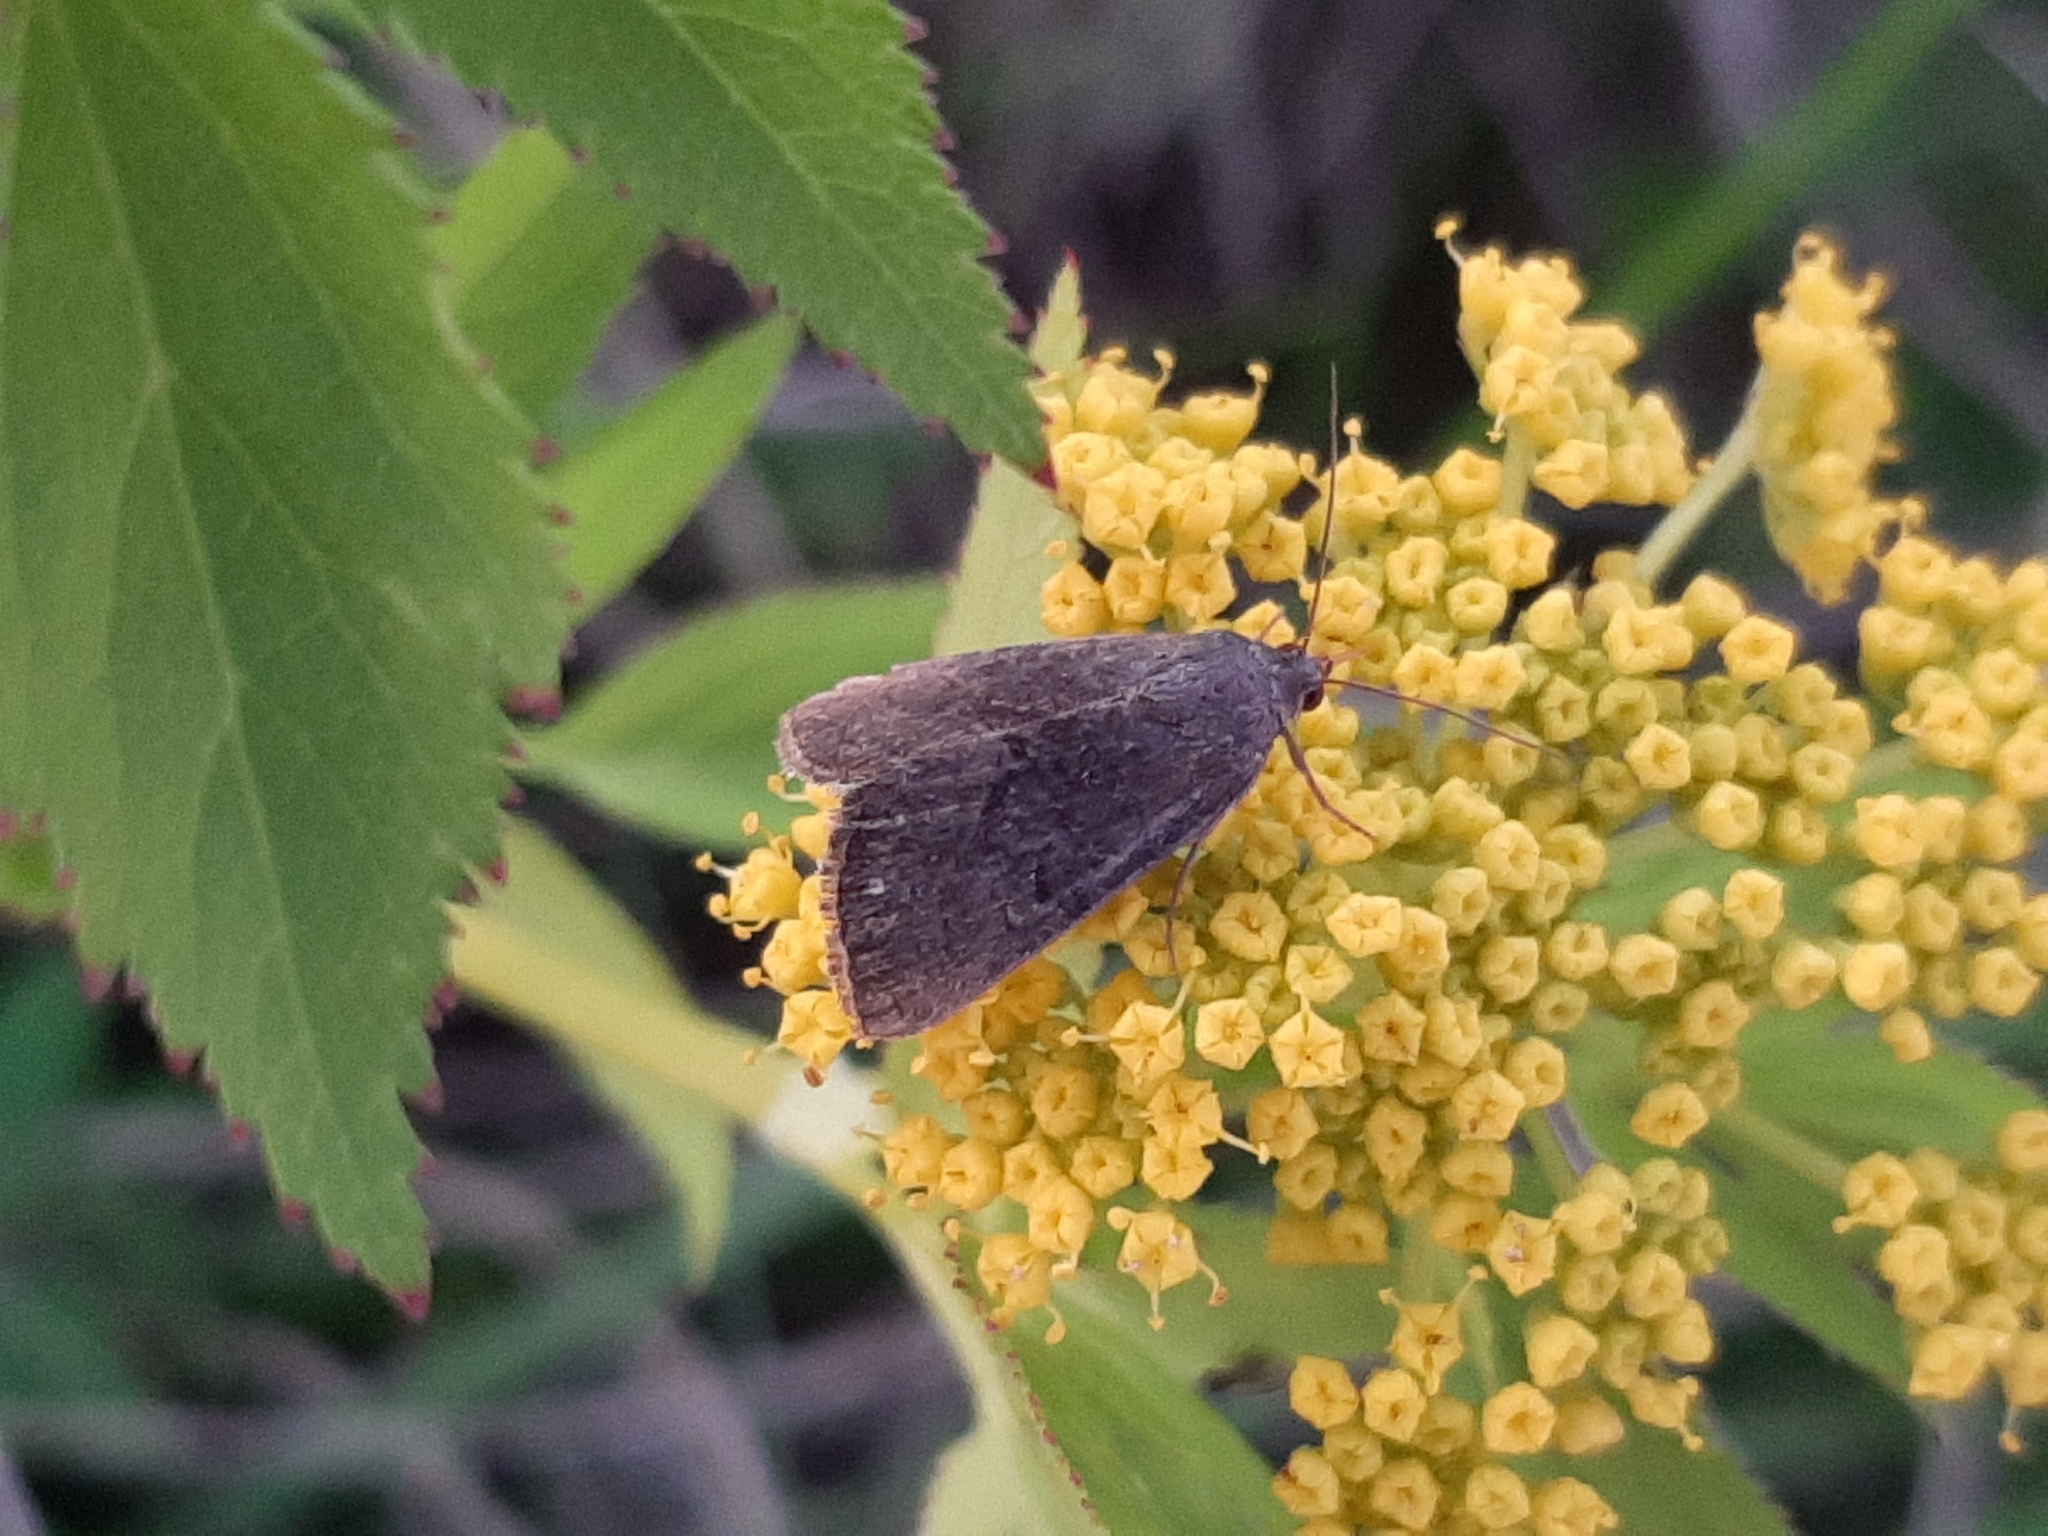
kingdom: Animalia
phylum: Arthropoda
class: Insecta
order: Lepidoptera
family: Noctuidae
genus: Galgula
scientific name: Galgula partita
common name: Wedgeling
